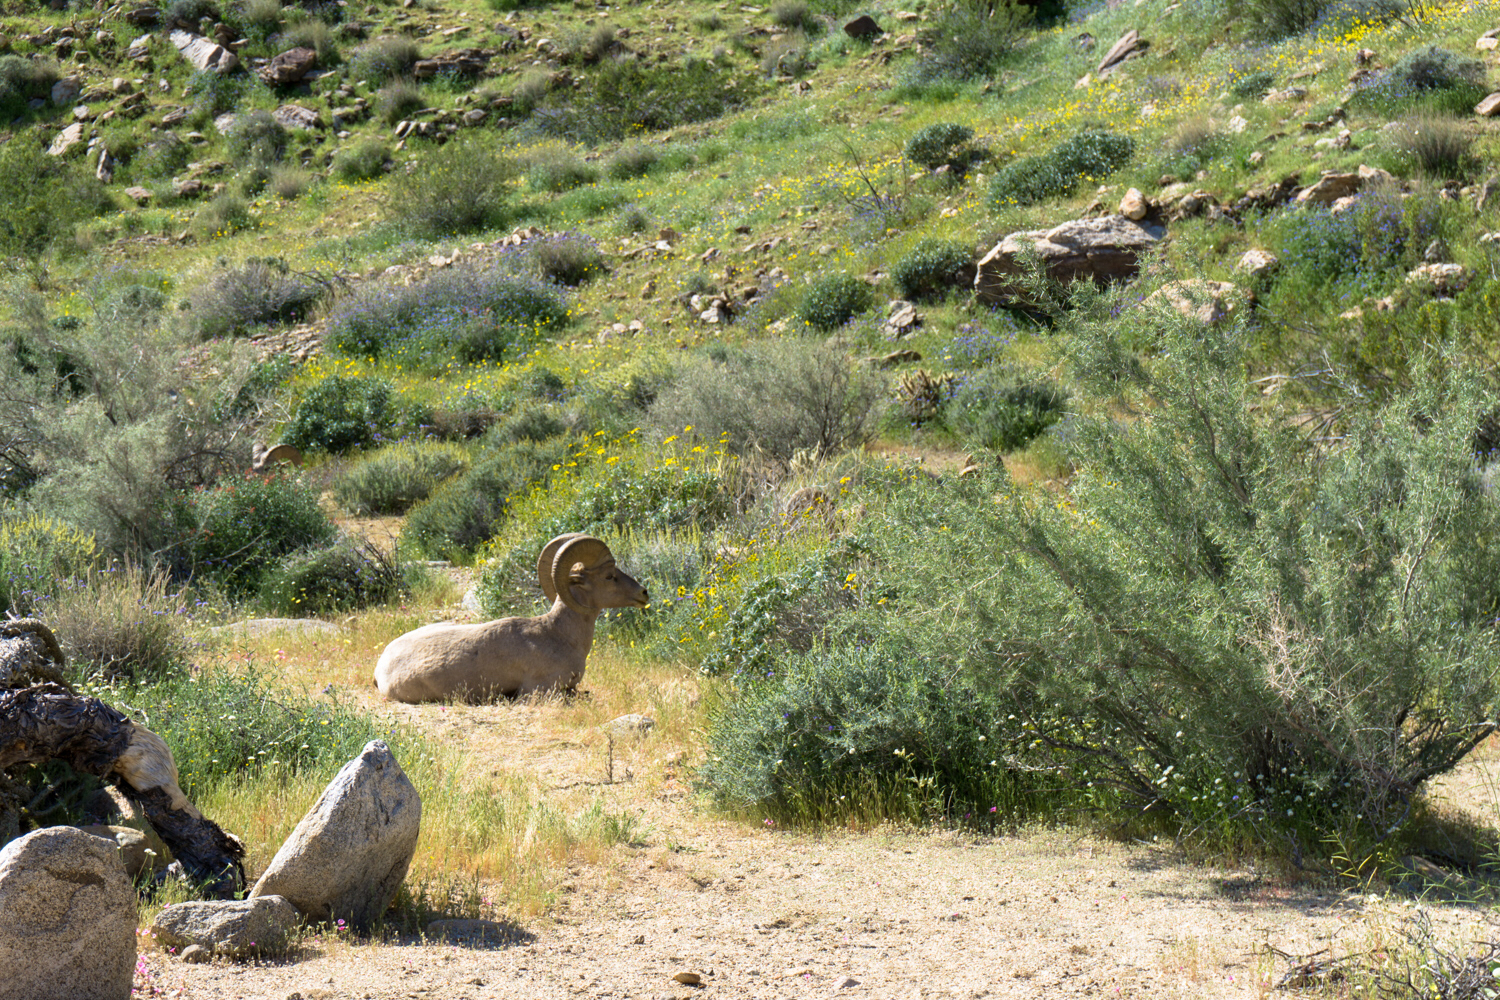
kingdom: Animalia
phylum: Chordata
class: Mammalia
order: Artiodactyla
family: Bovidae
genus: Ovis
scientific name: Ovis canadensis
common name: Bighorn sheep
